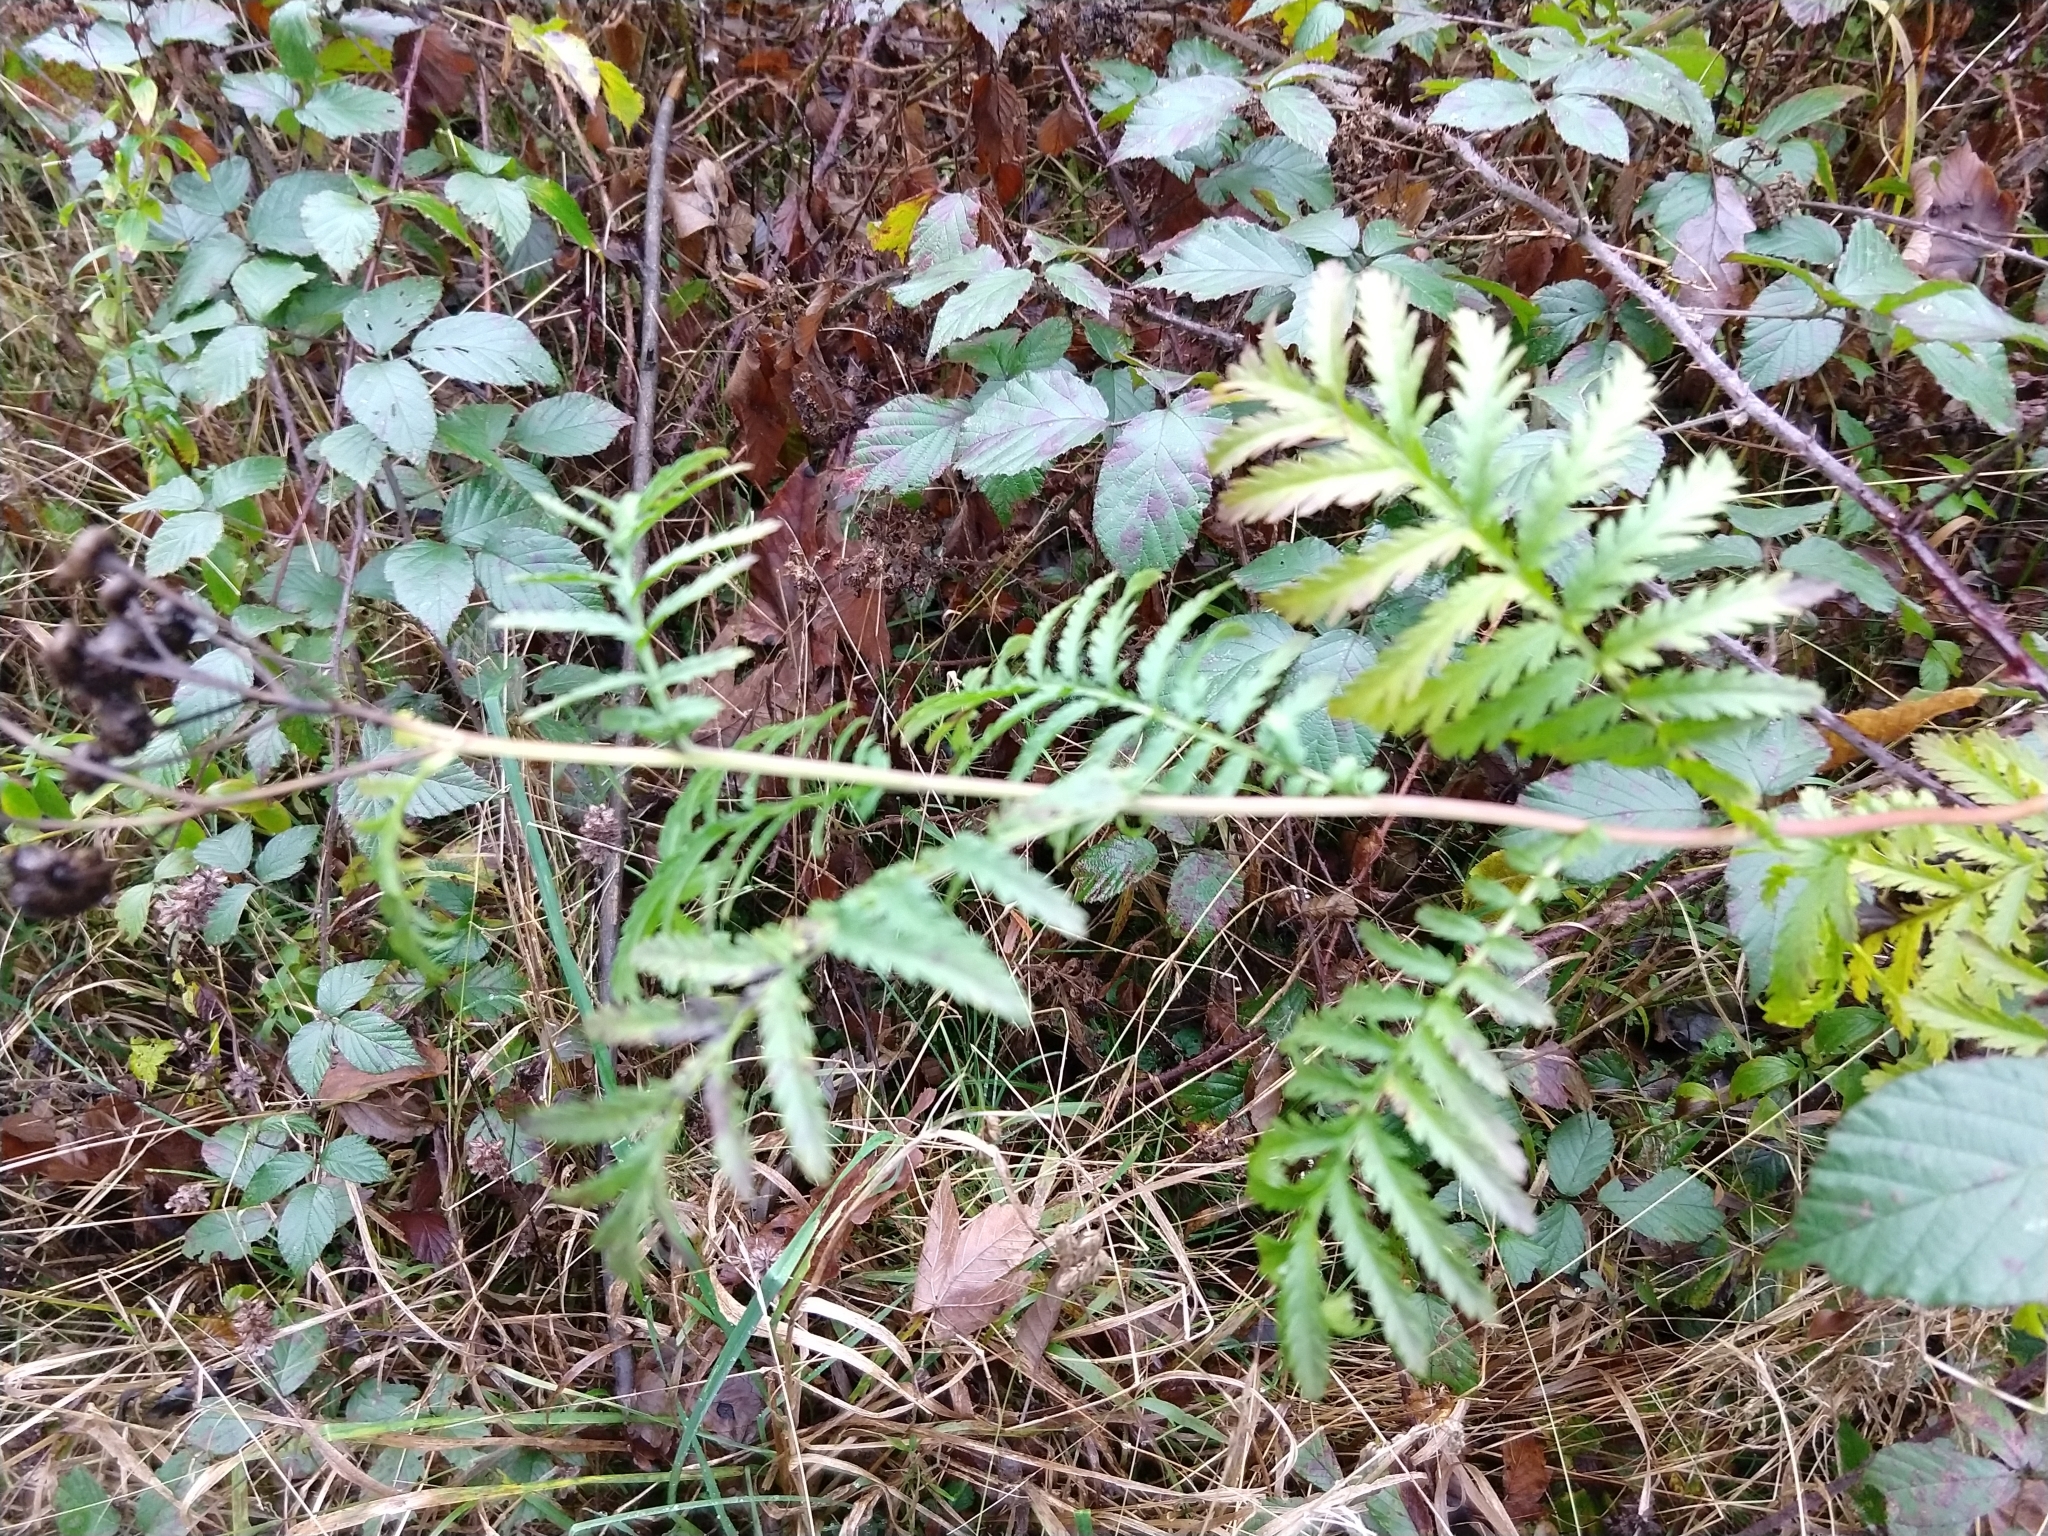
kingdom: Plantae
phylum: Tracheophyta
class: Magnoliopsida
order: Asterales
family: Asteraceae
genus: Tanacetum
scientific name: Tanacetum vulgare
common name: Common tansy
